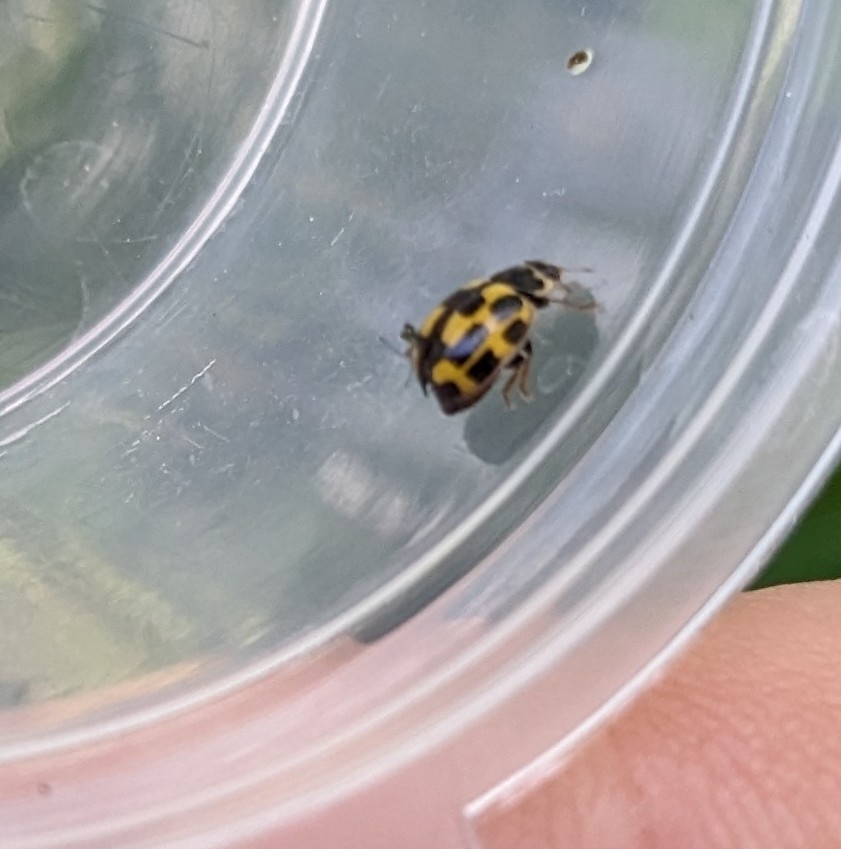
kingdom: Animalia
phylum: Arthropoda
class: Insecta
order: Coleoptera
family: Coccinellidae
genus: Propylaea
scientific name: Propylaea quatuordecimpunctata
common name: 14-spotted ladybird beetle
